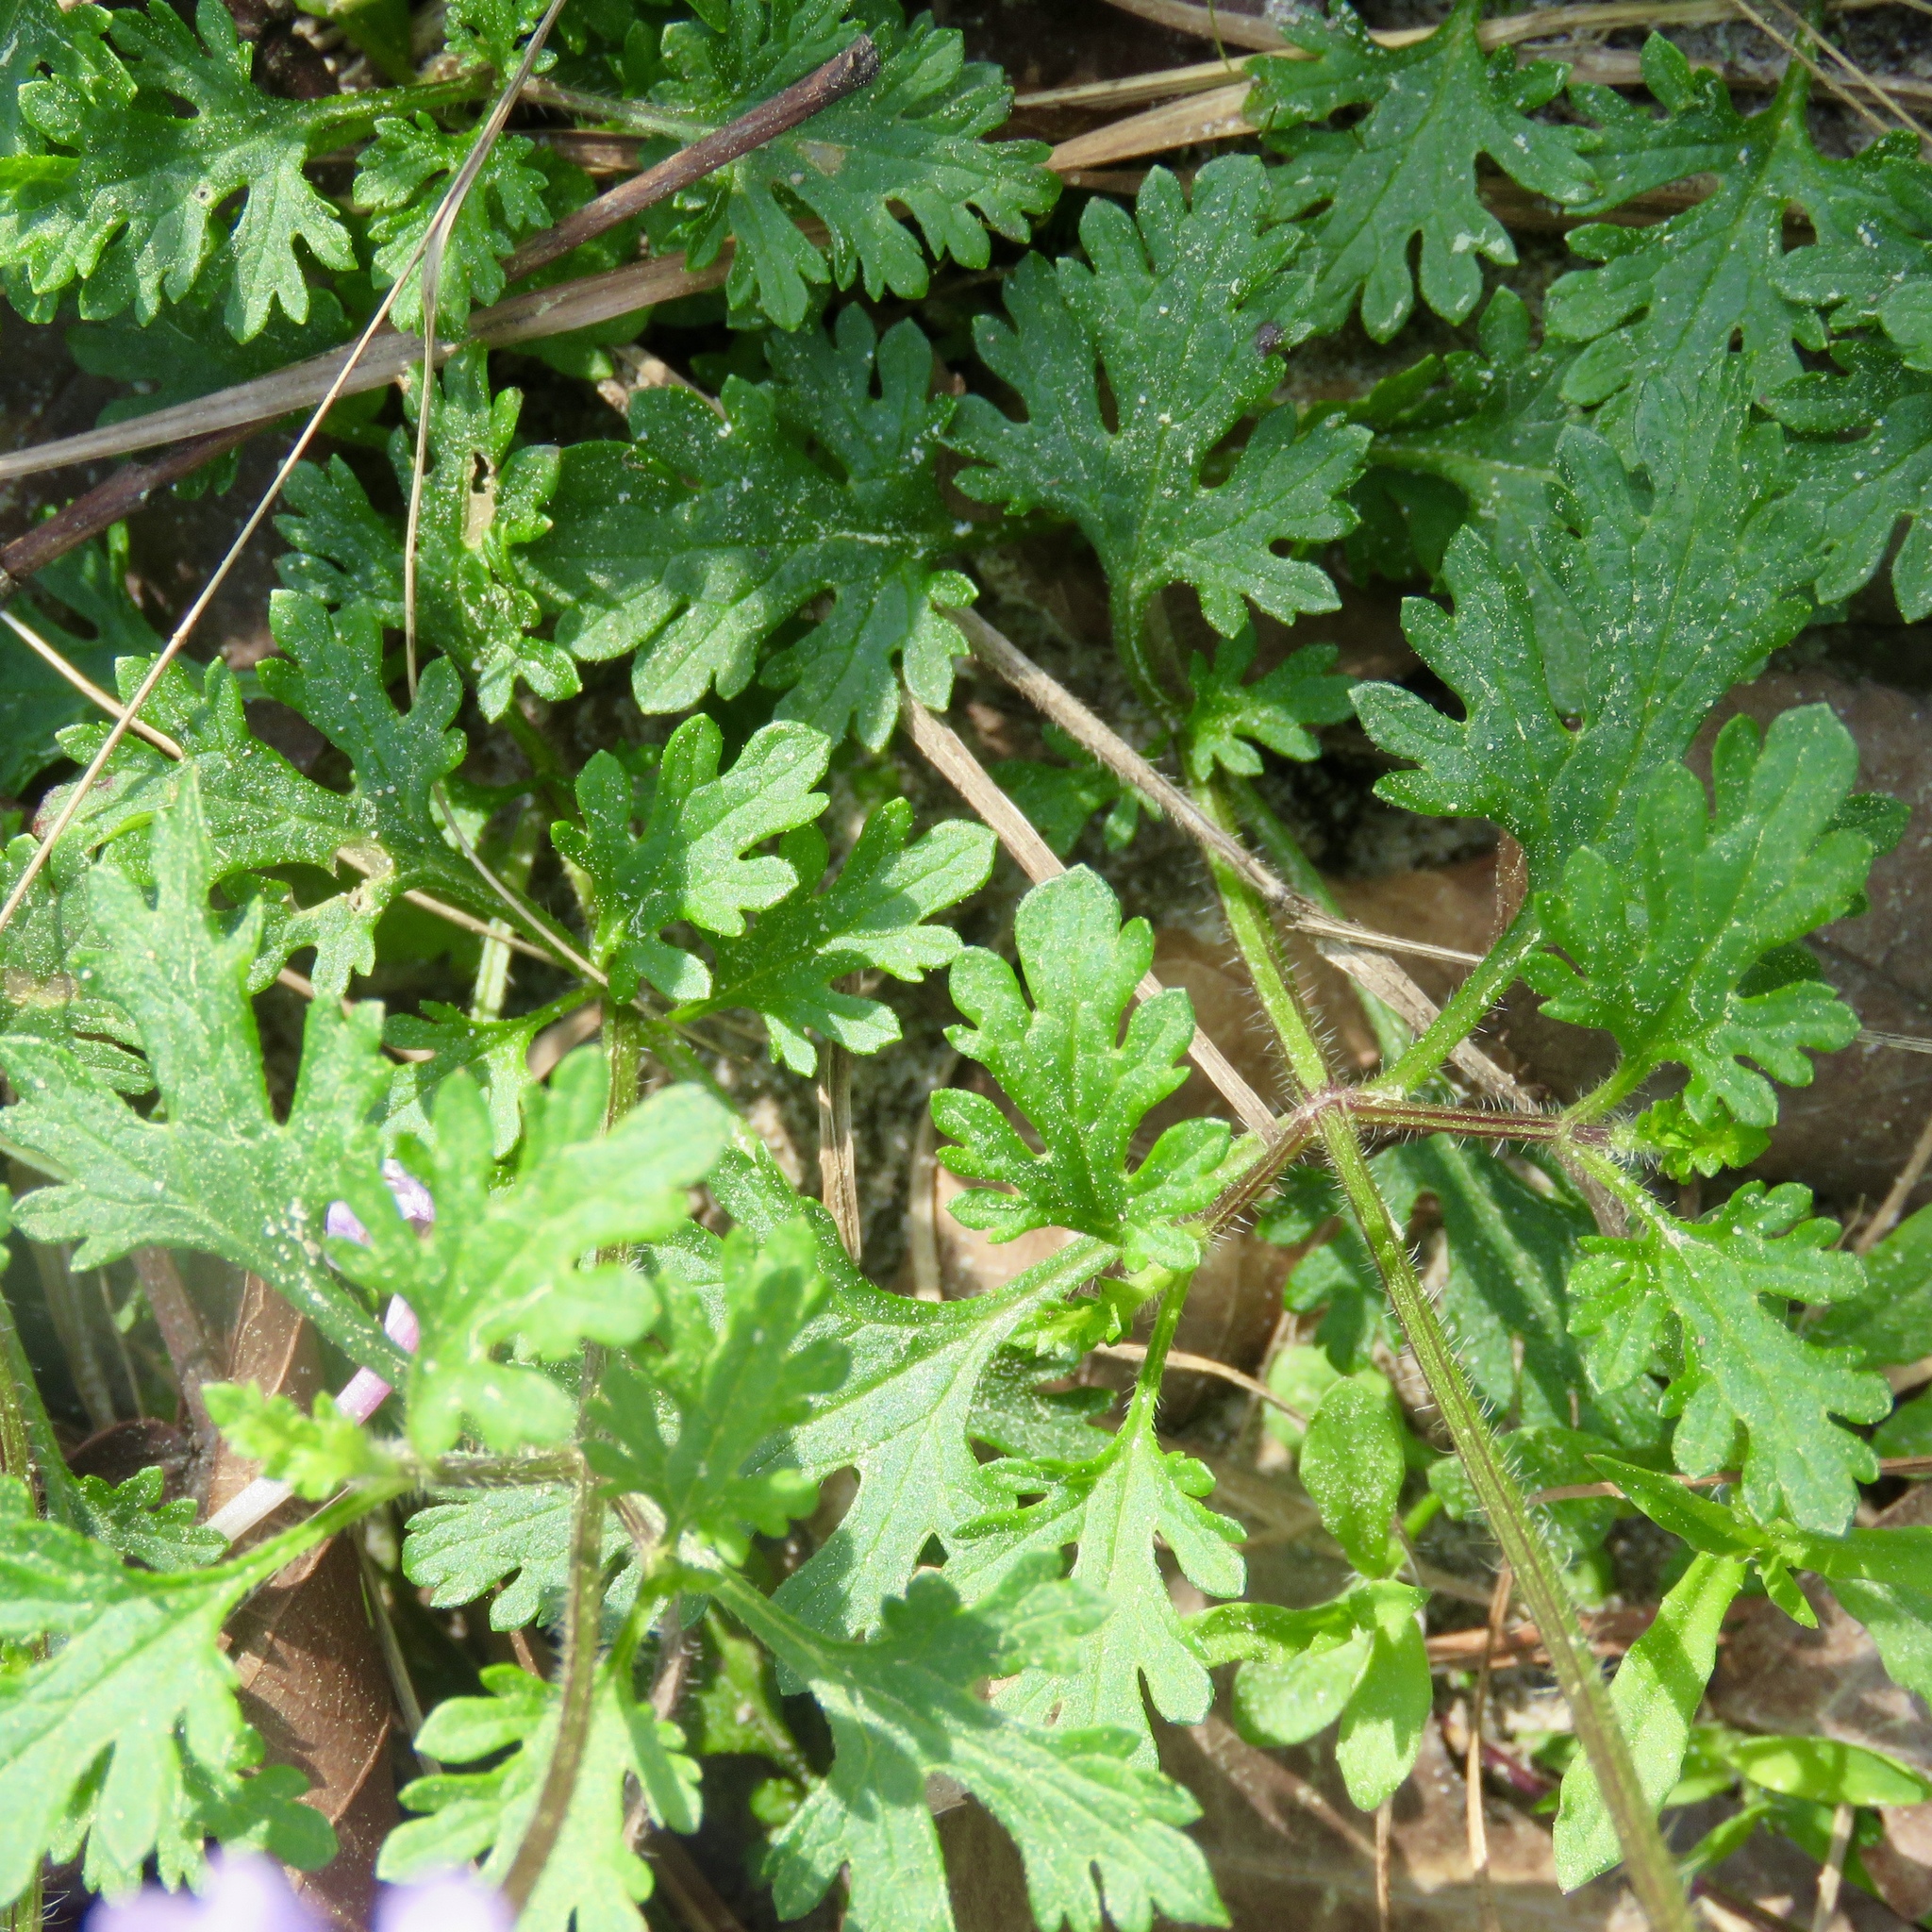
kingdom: Plantae
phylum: Tracheophyta
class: Magnoliopsida
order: Lamiales
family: Verbenaceae
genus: Verbena
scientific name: Verbena canadensis
